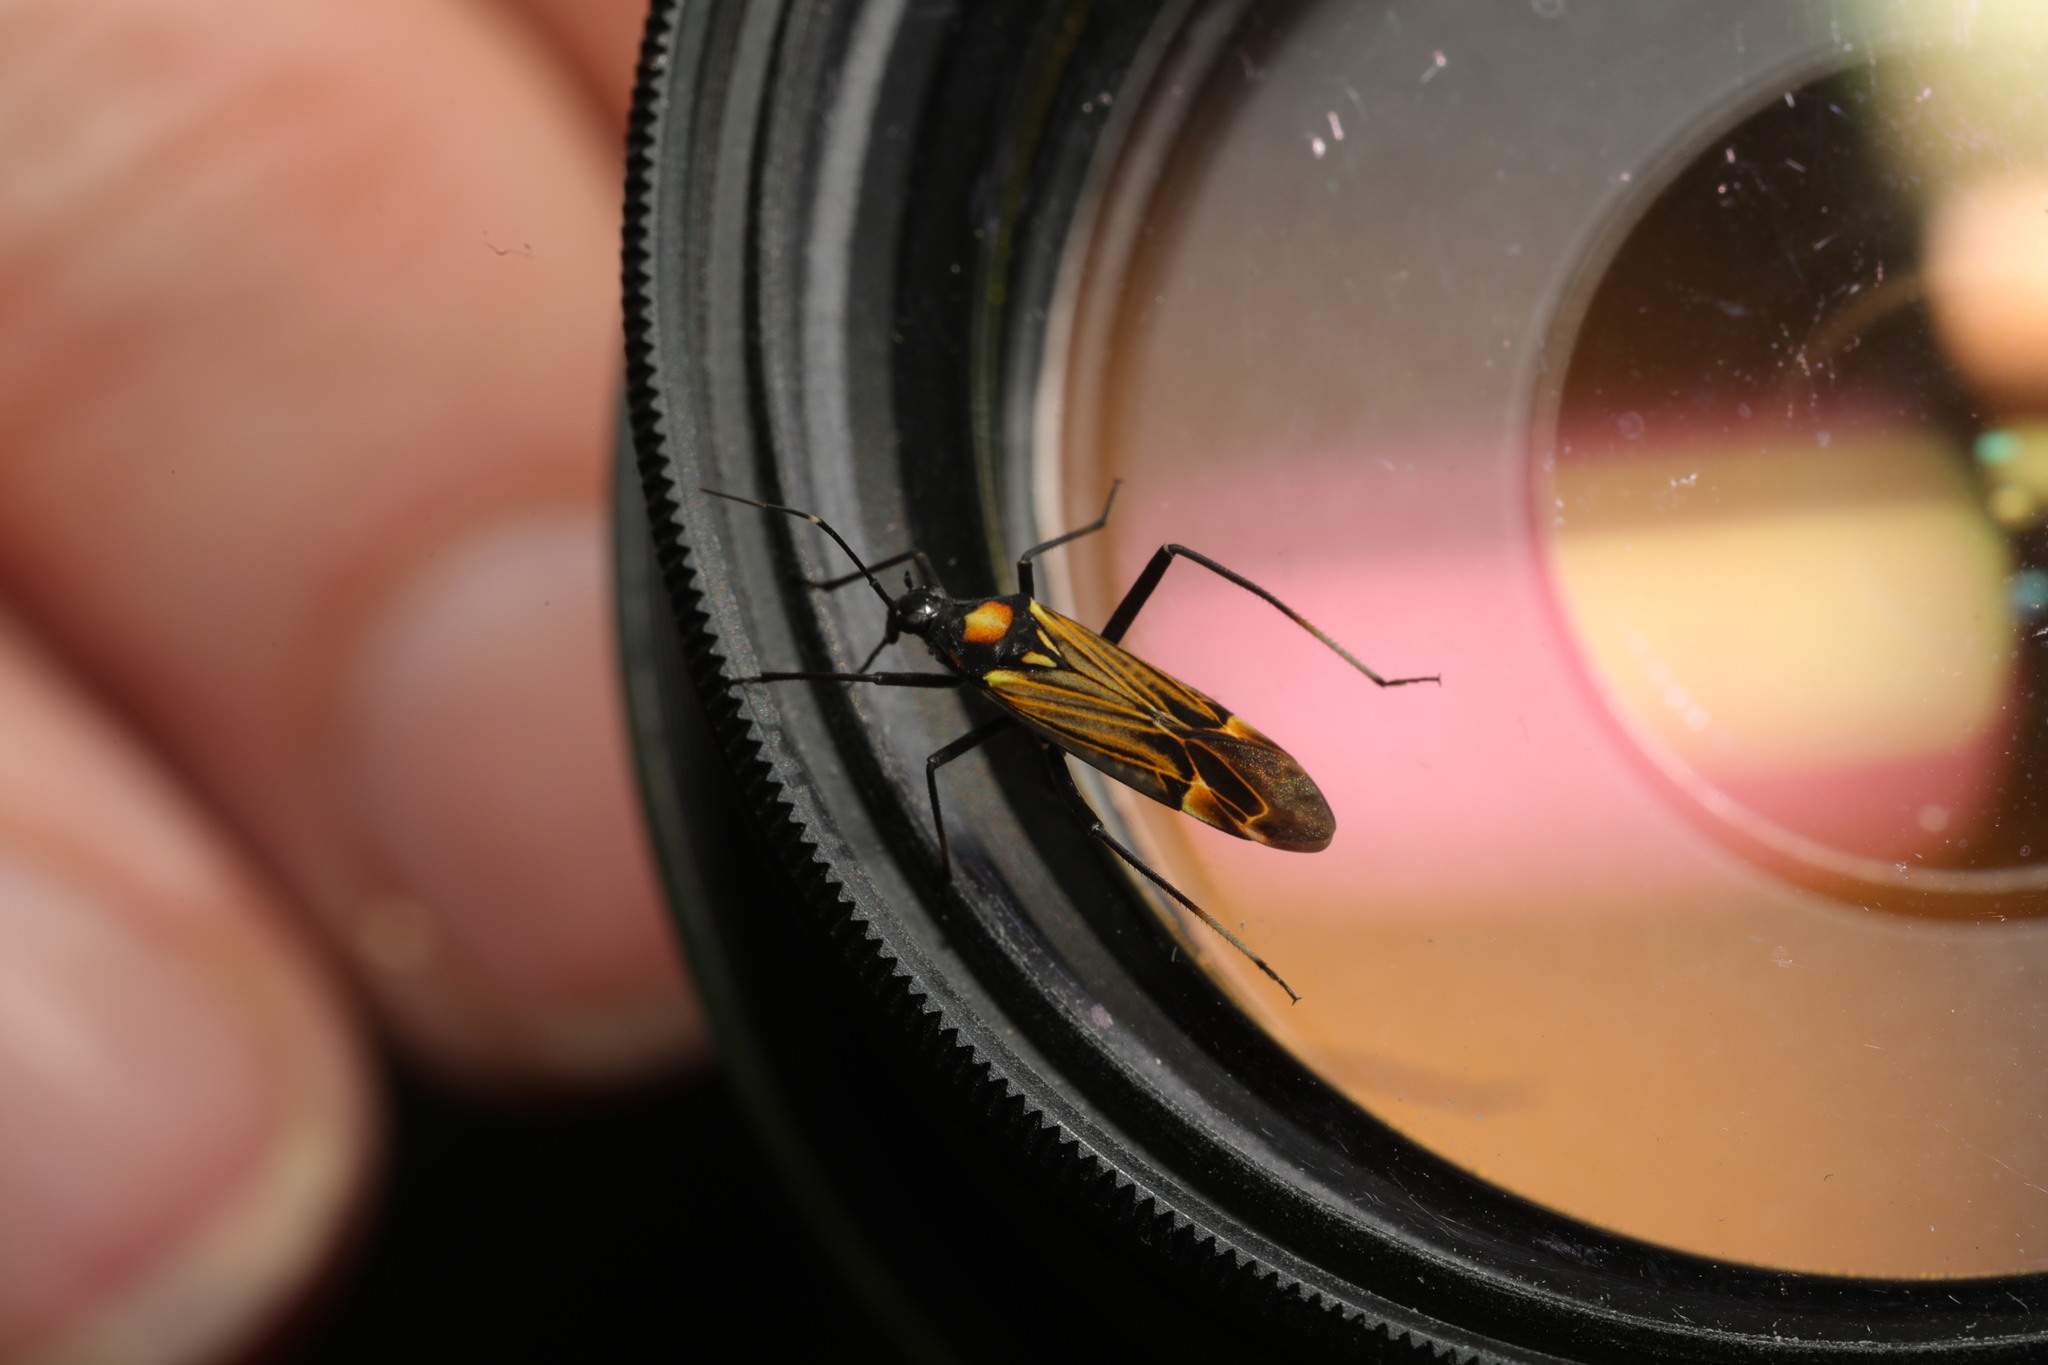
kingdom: Animalia
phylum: Arthropoda
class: Insecta
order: Hemiptera
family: Miridae
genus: Miris
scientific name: Miris striatus
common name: Fine streaked bugkin
